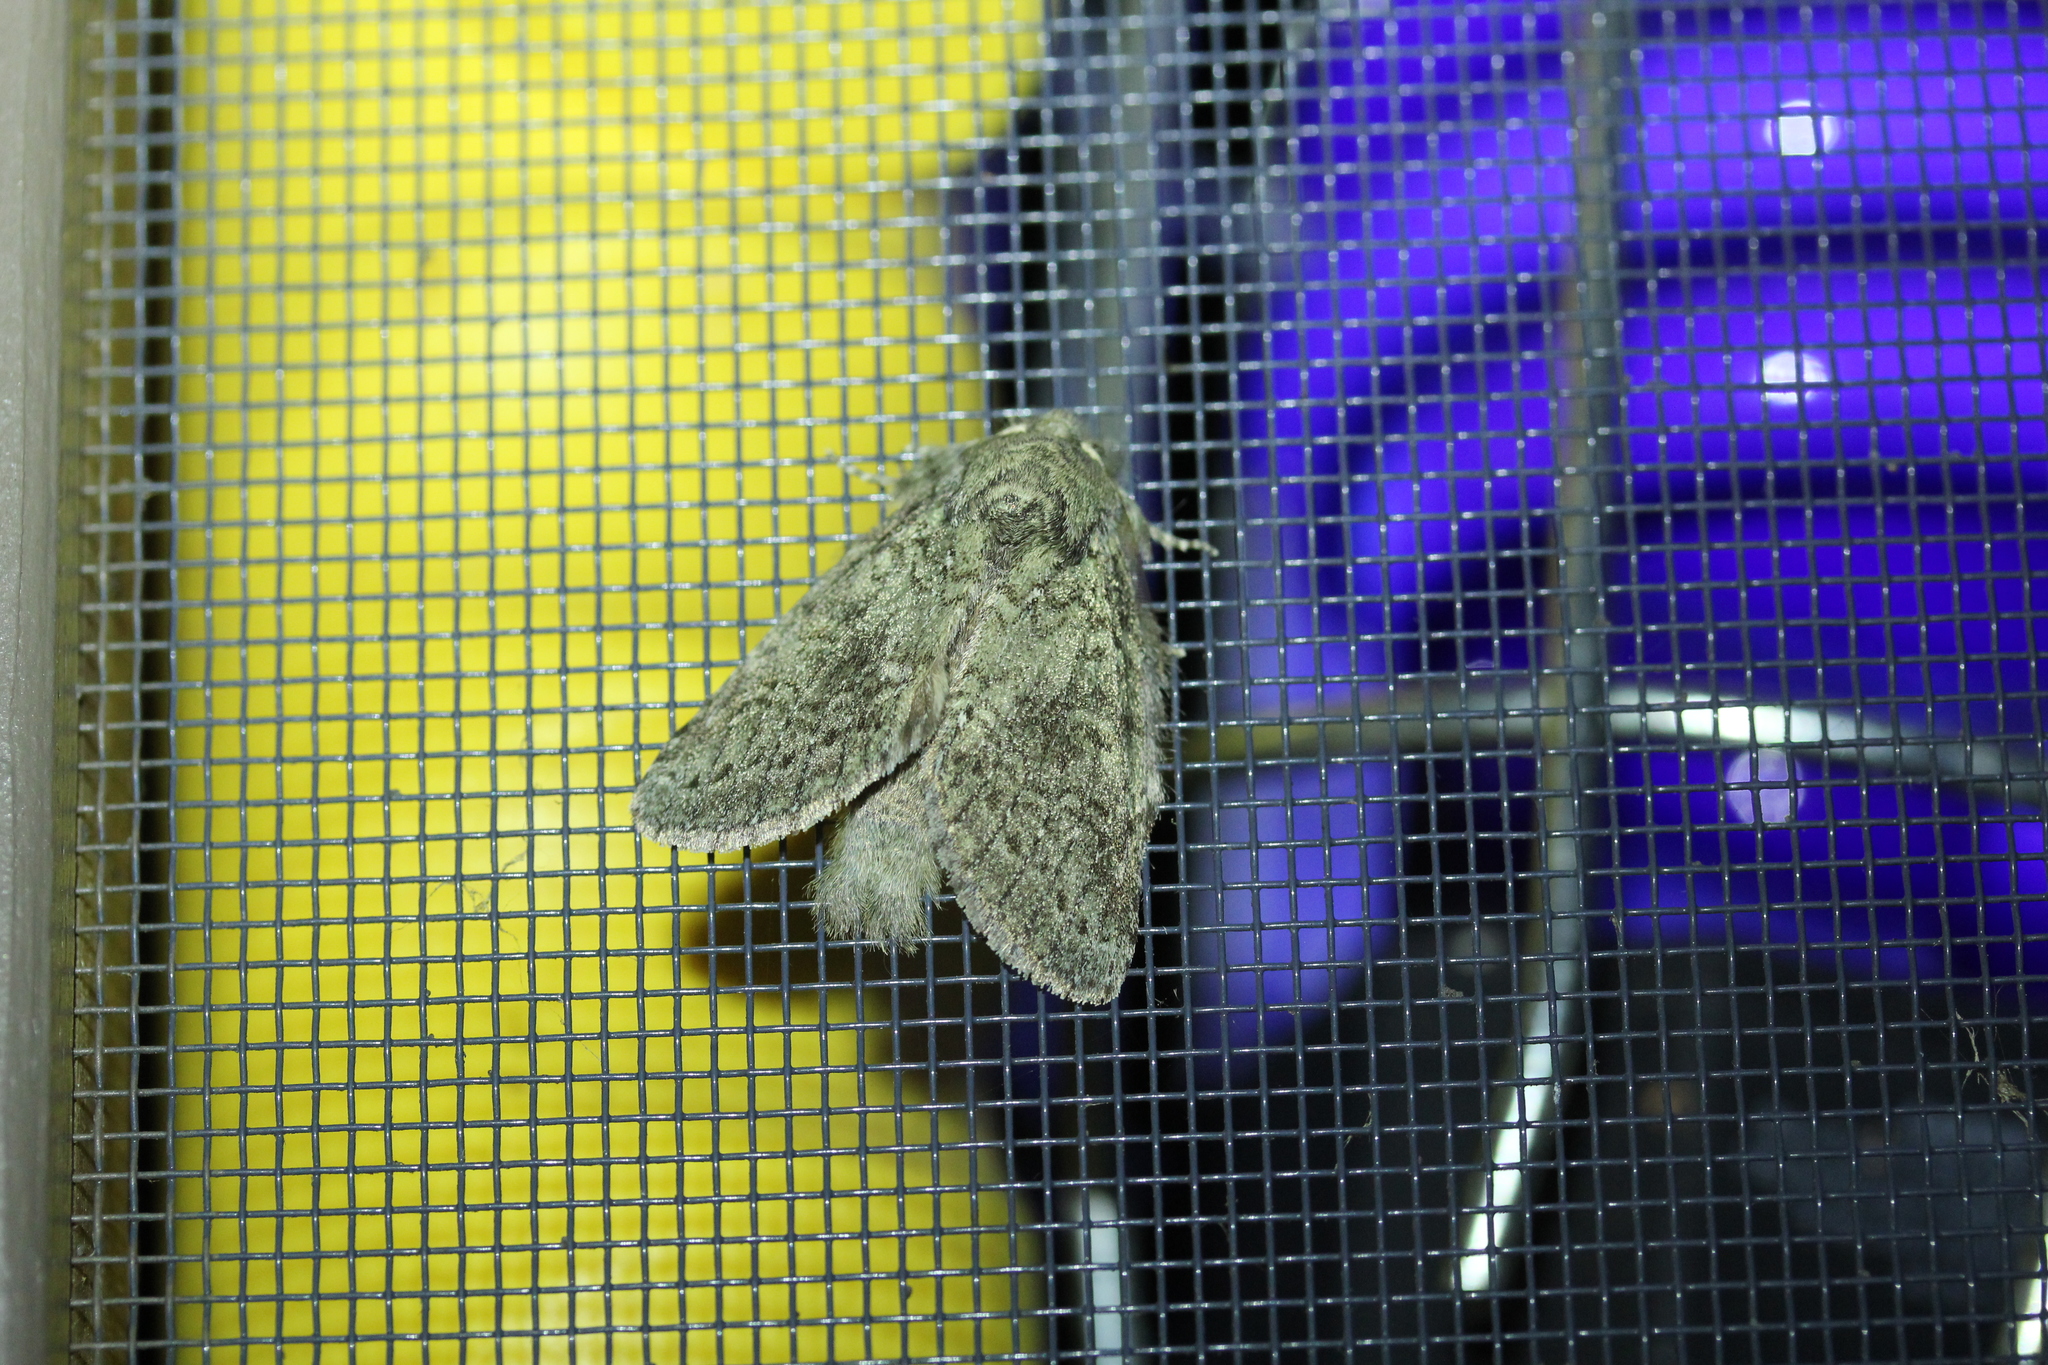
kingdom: Animalia
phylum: Arthropoda
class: Insecta
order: Lepidoptera
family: Notodontidae
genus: Disphragis
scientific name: Disphragis Cecrita guttivitta
